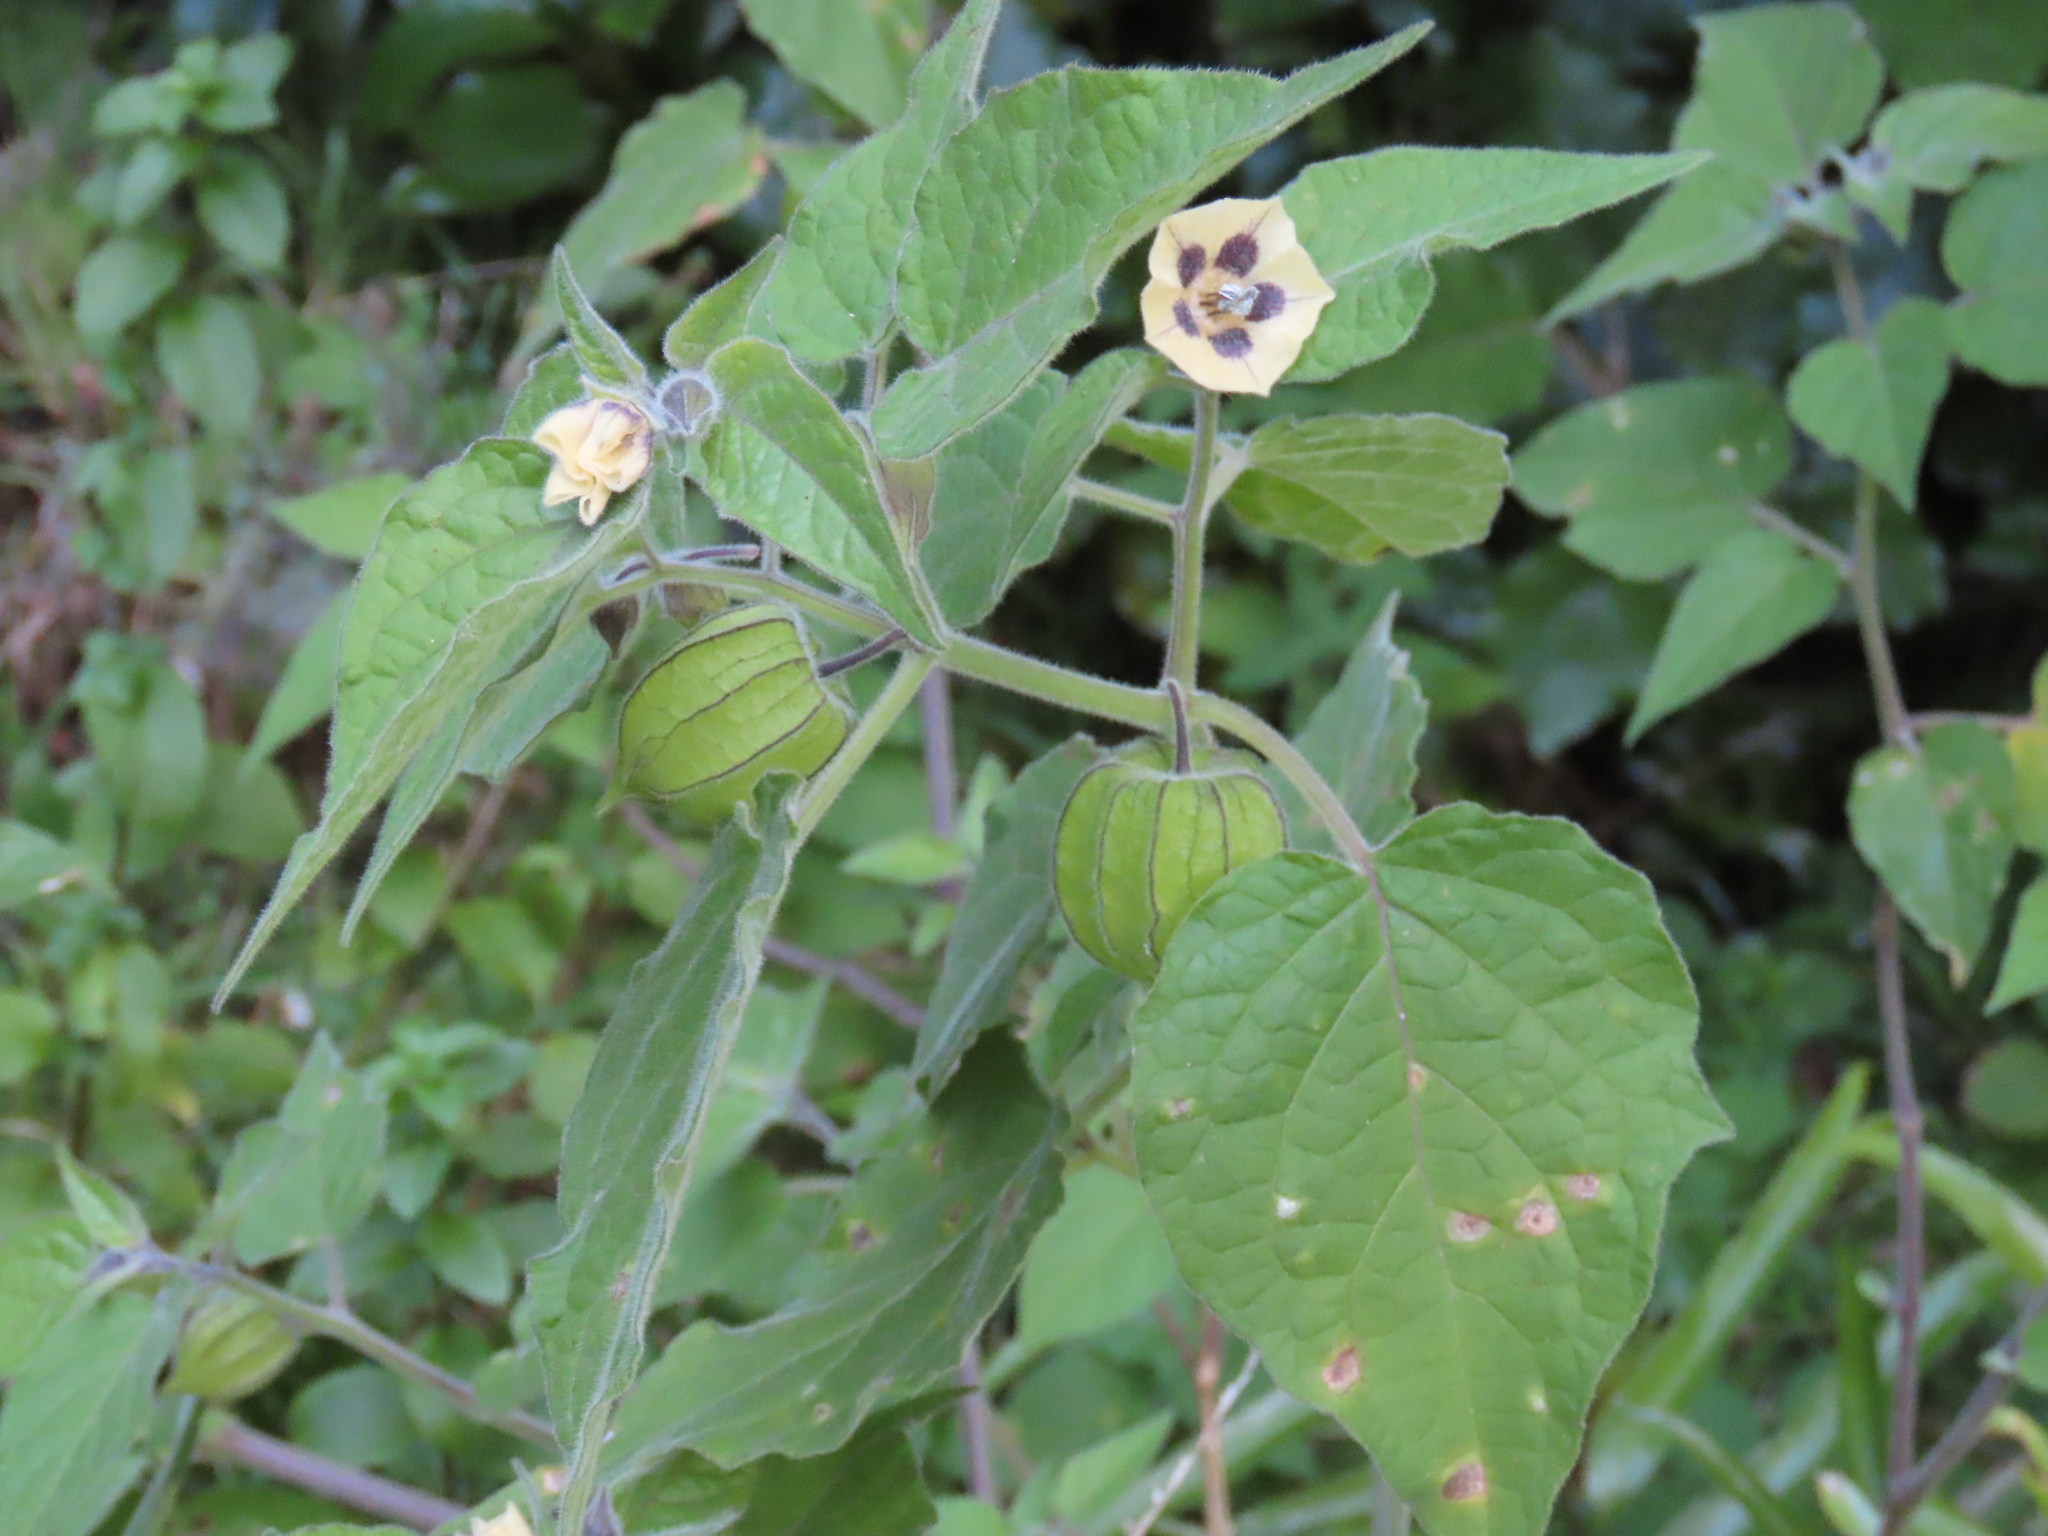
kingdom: Plantae
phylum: Tracheophyta
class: Magnoliopsida
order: Solanales
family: Solanaceae
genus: Physalis
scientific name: Physalis peruviana
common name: Cape-gooseberry
